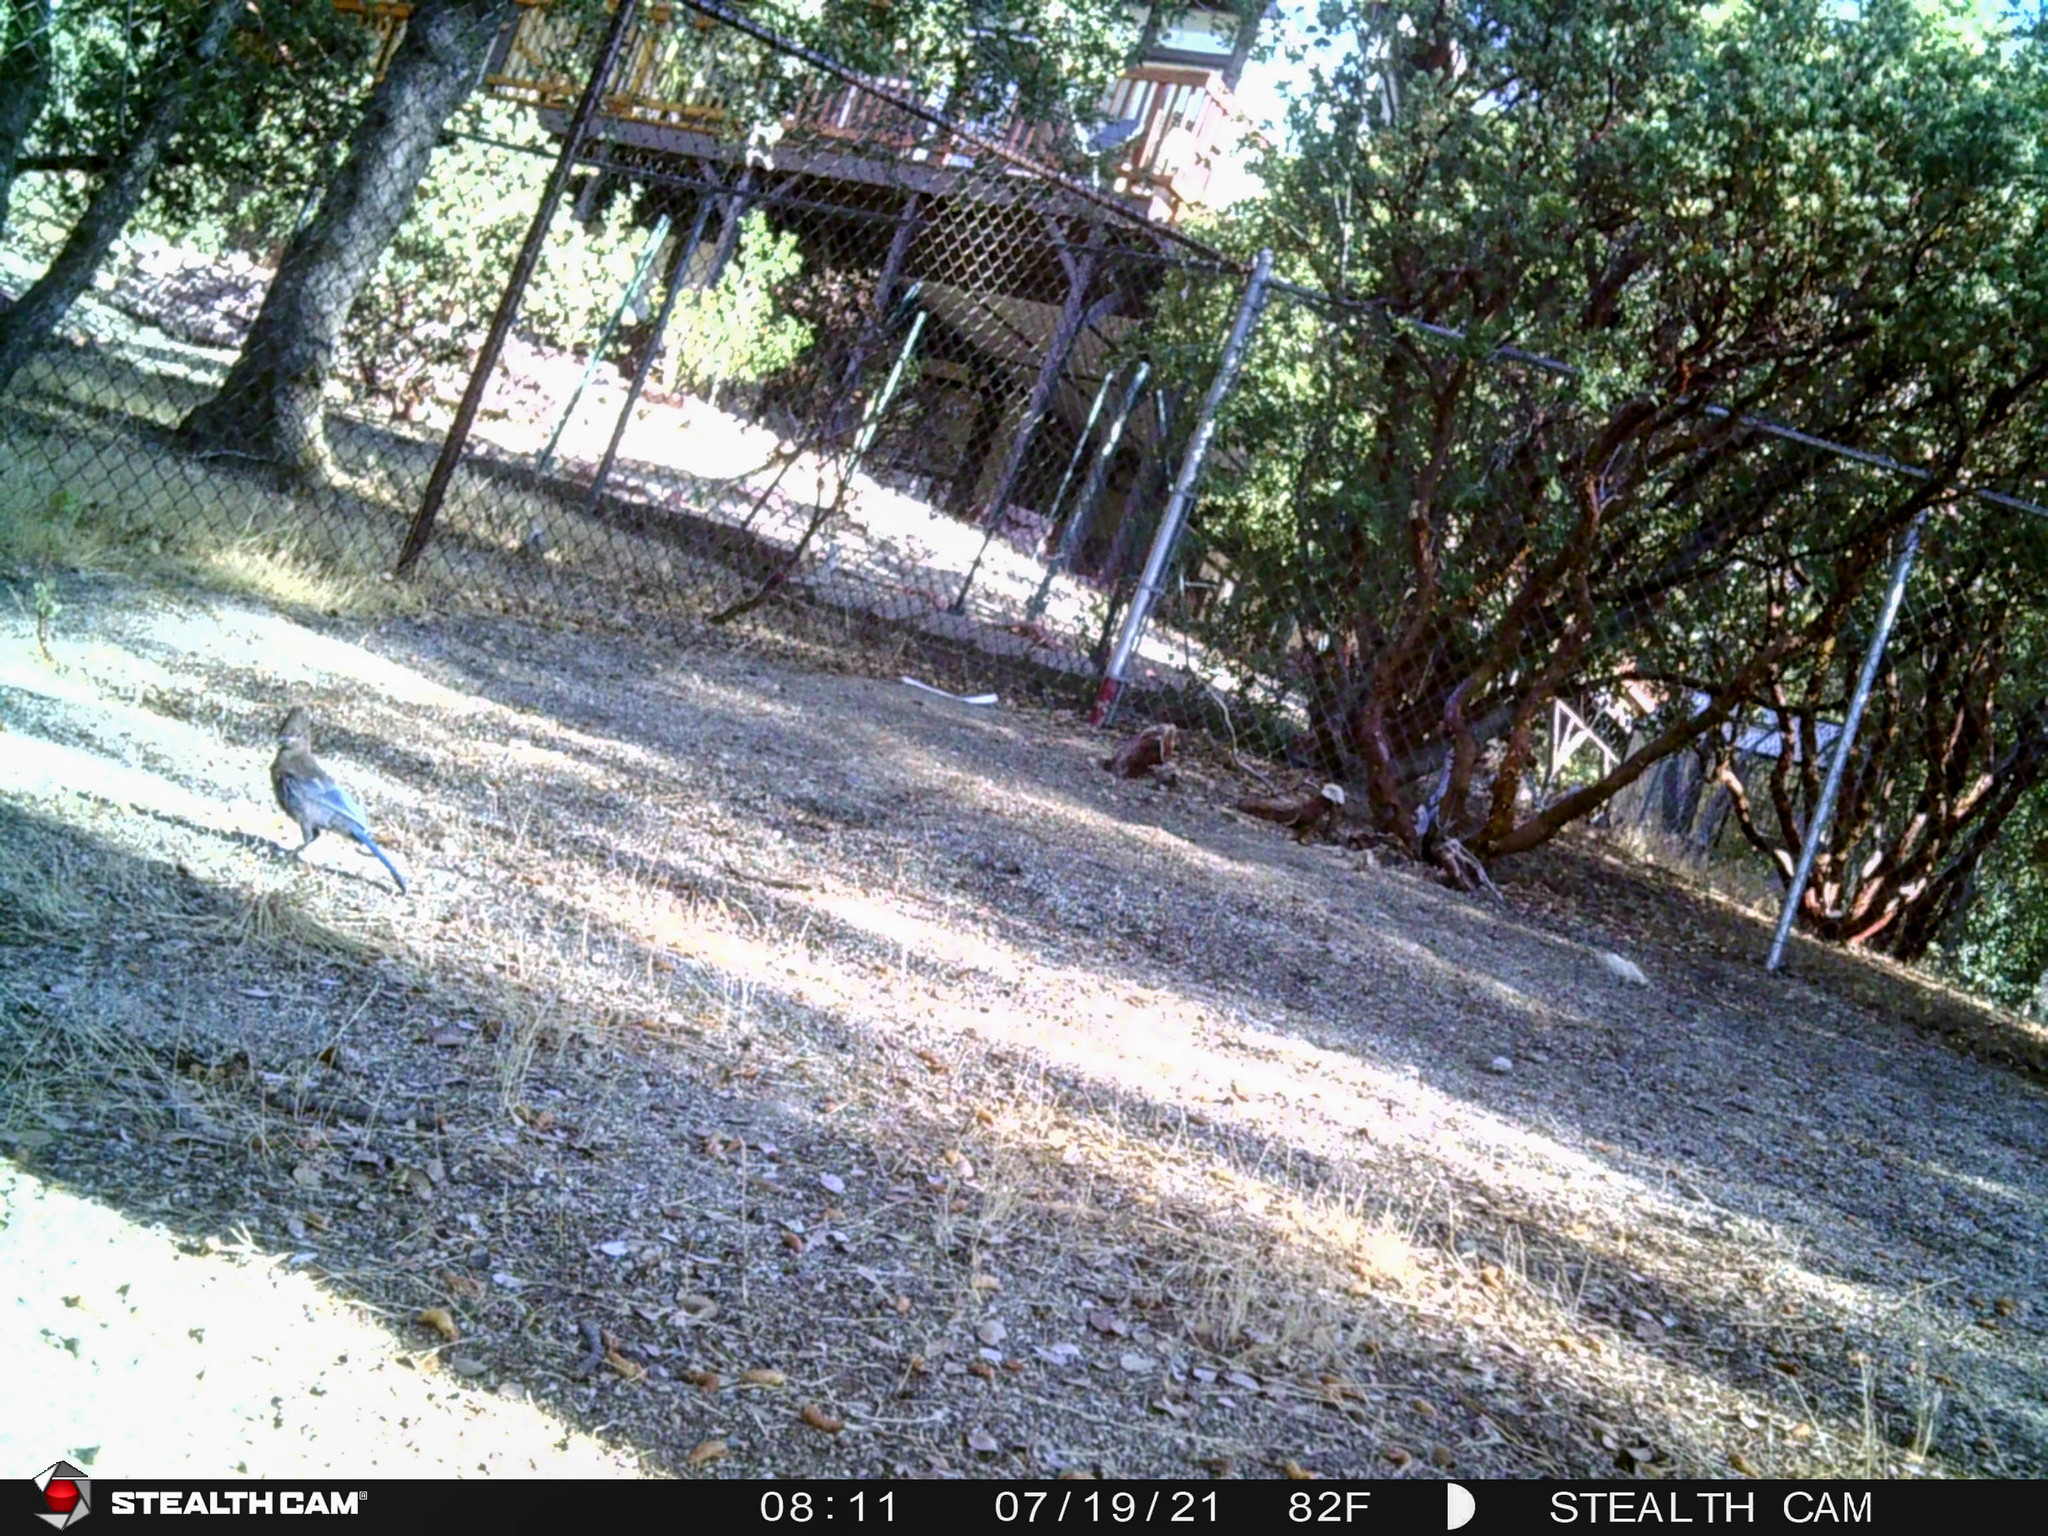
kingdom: Animalia
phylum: Chordata
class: Aves
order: Passeriformes
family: Corvidae
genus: Cyanocitta
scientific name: Cyanocitta stelleri
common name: Steller's jay
